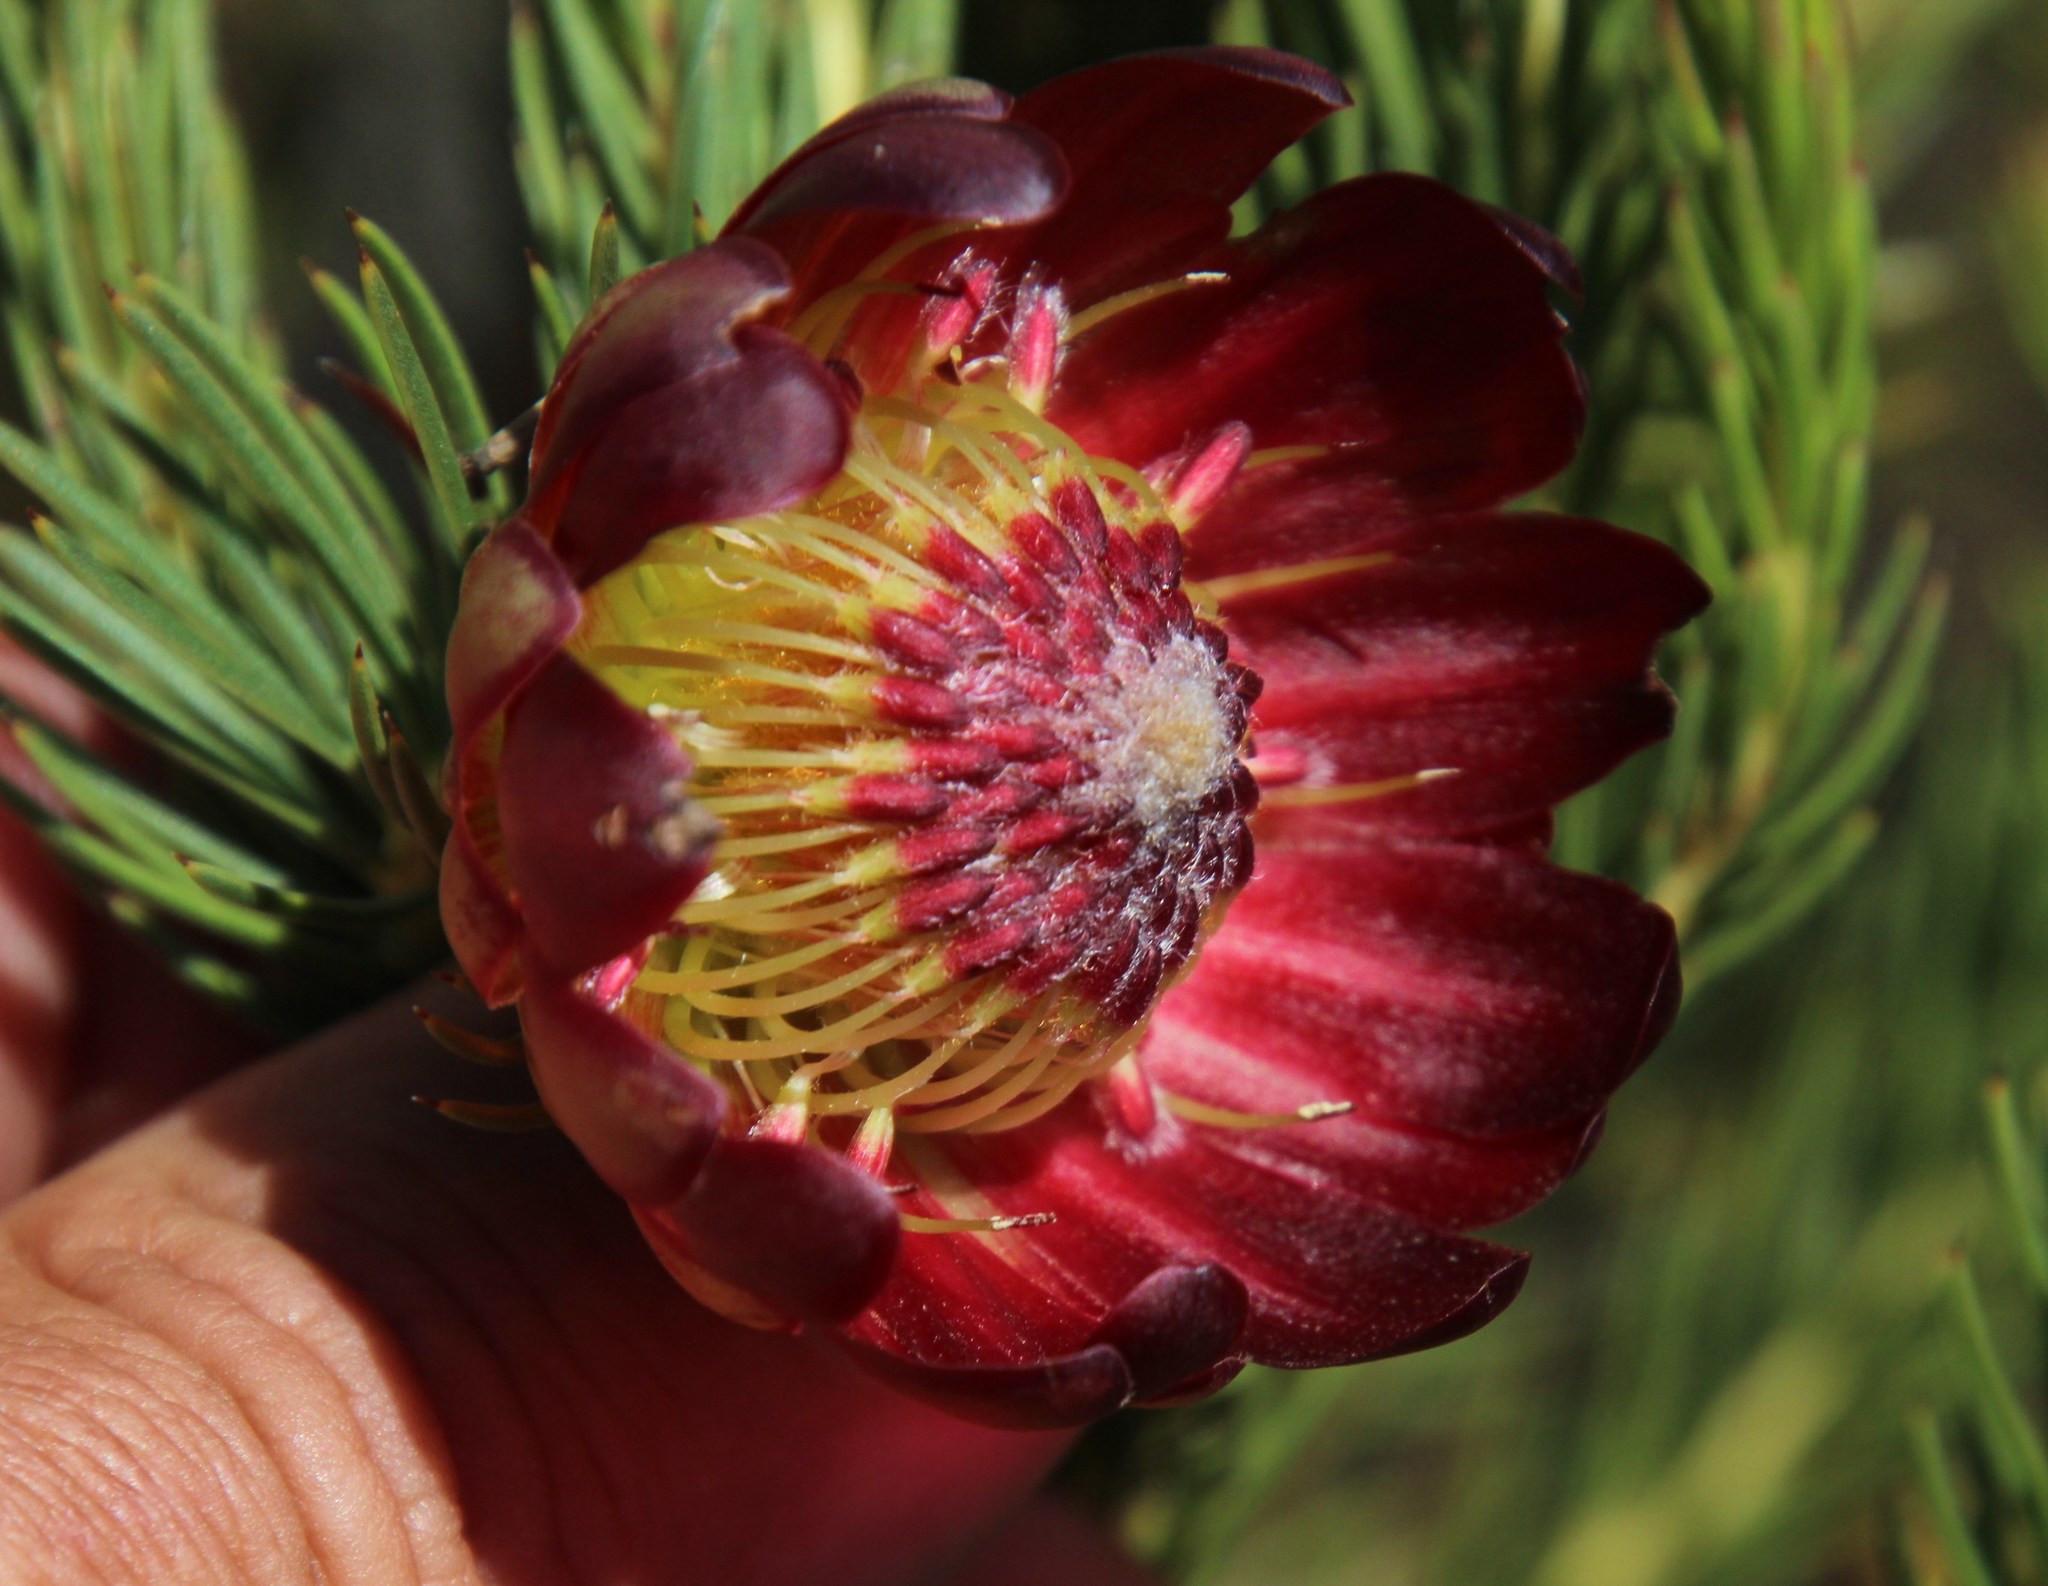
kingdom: Plantae
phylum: Tracheophyta
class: Magnoliopsida
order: Proteales
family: Proteaceae
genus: Protea
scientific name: Protea nana
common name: Mountain rose
